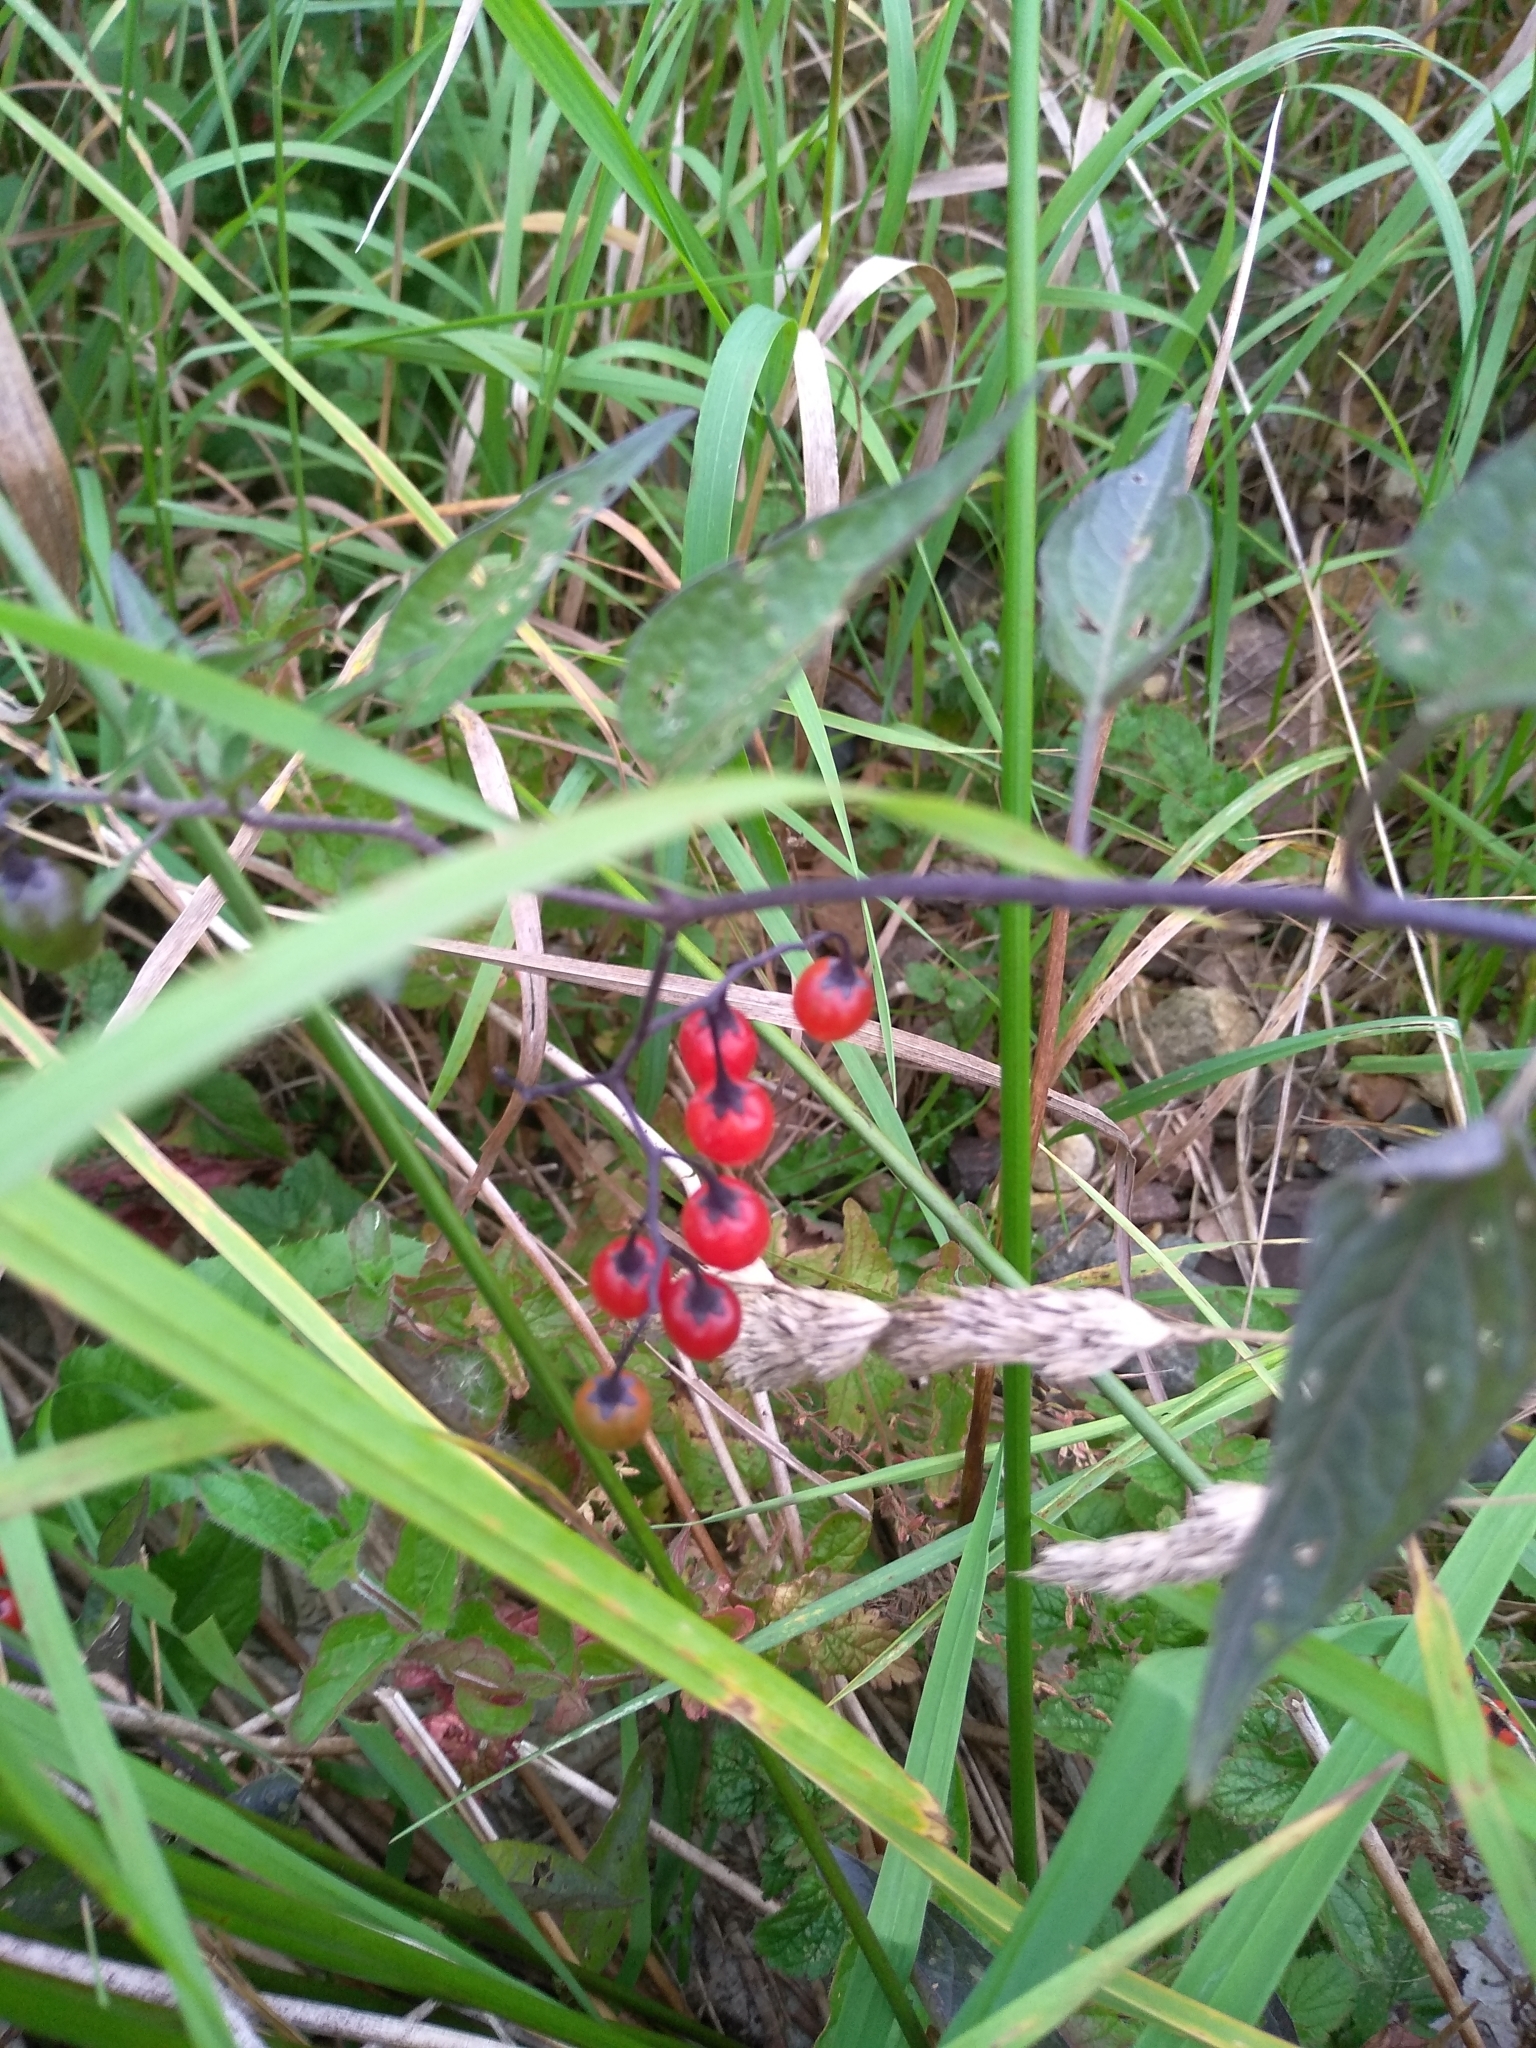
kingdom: Plantae
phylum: Tracheophyta
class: Magnoliopsida
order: Solanales
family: Solanaceae
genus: Solanum
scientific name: Solanum dulcamara
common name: Climbing nightshade
